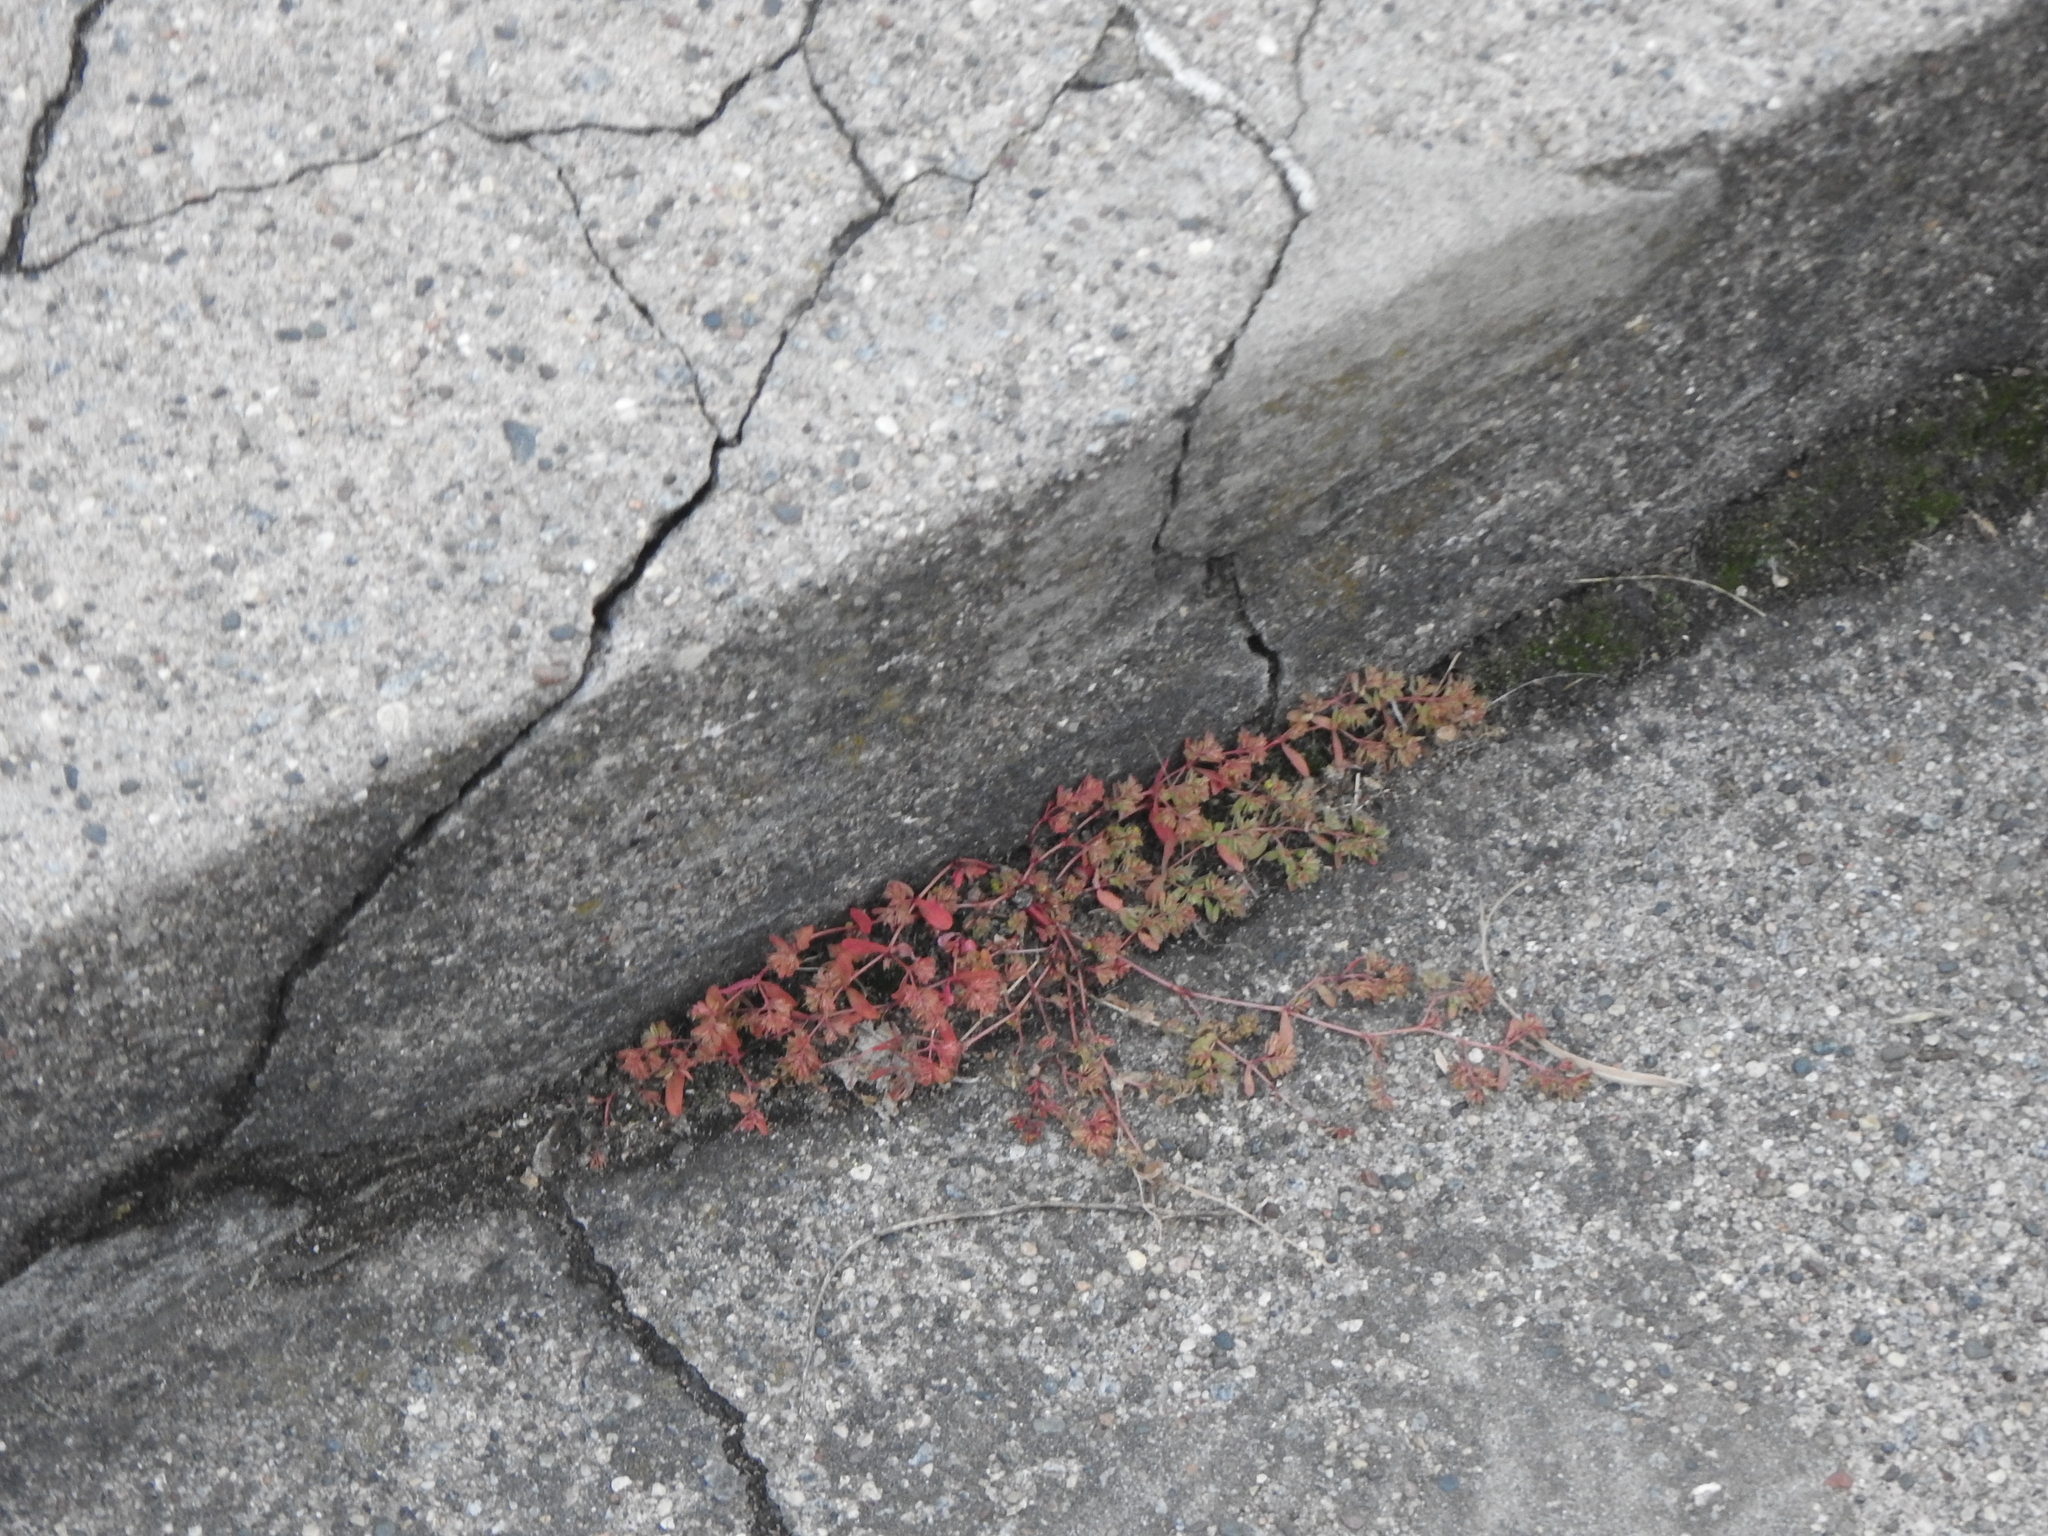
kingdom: Plantae
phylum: Tracheophyta
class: Magnoliopsida
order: Malpighiales
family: Euphorbiaceae
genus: Euphorbia
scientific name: Euphorbia maculata
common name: Spotted spurge
